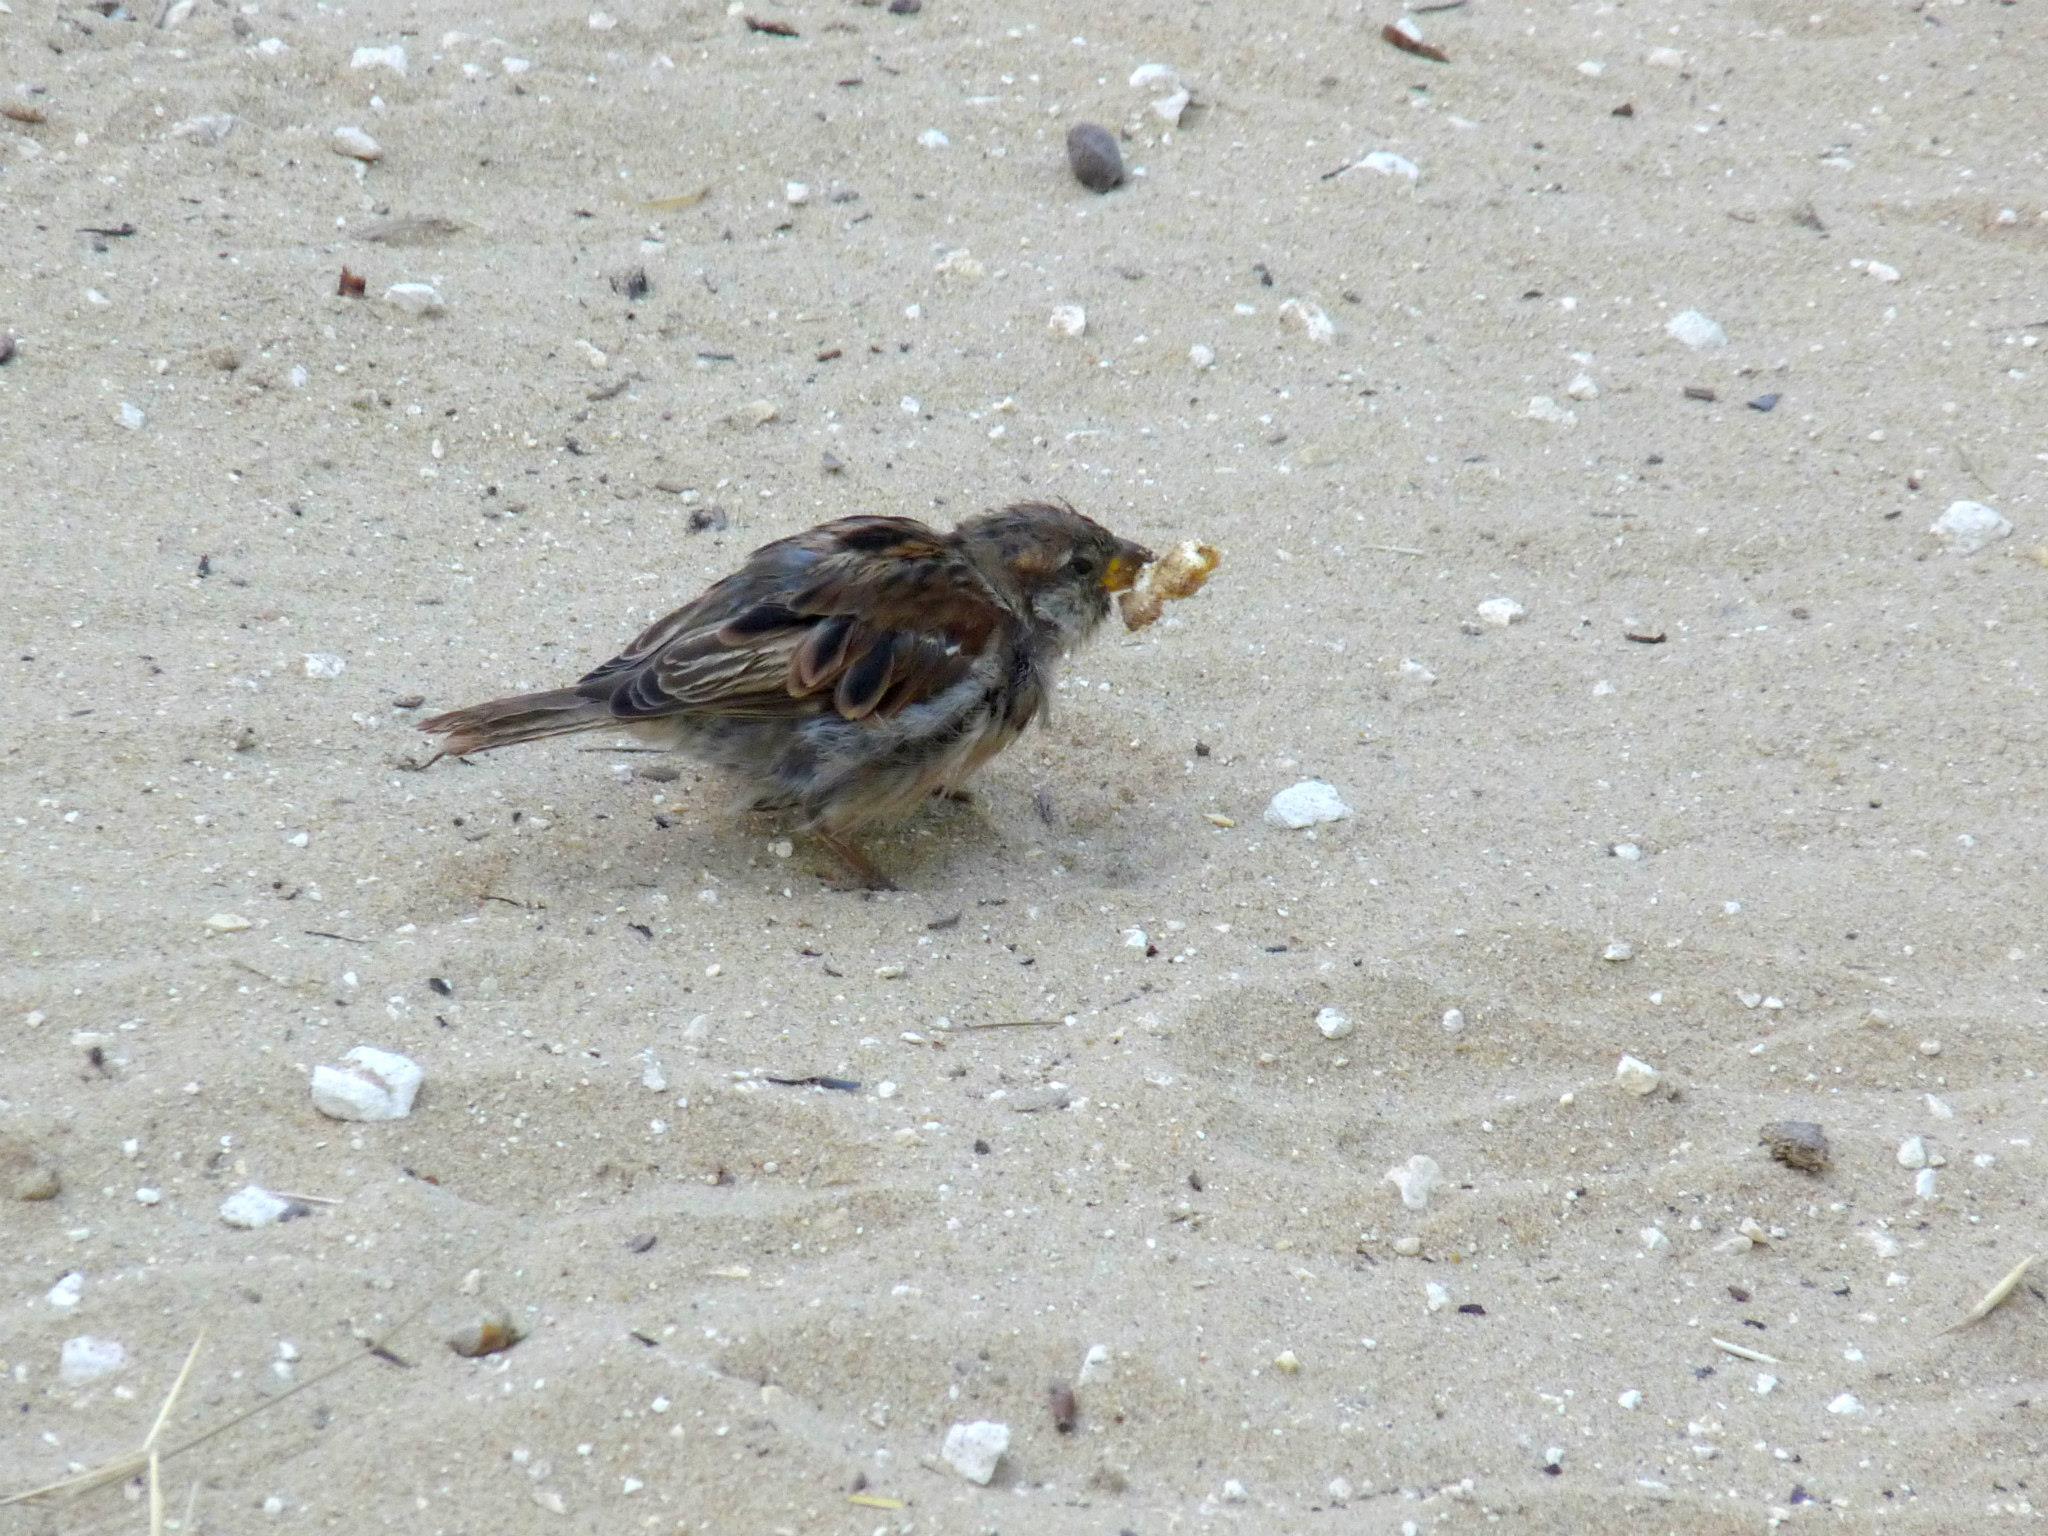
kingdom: Animalia
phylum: Chordata
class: Aves
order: Passeriformes
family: Passeridae
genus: Passer
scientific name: Passer domesticus
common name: House sparrow
